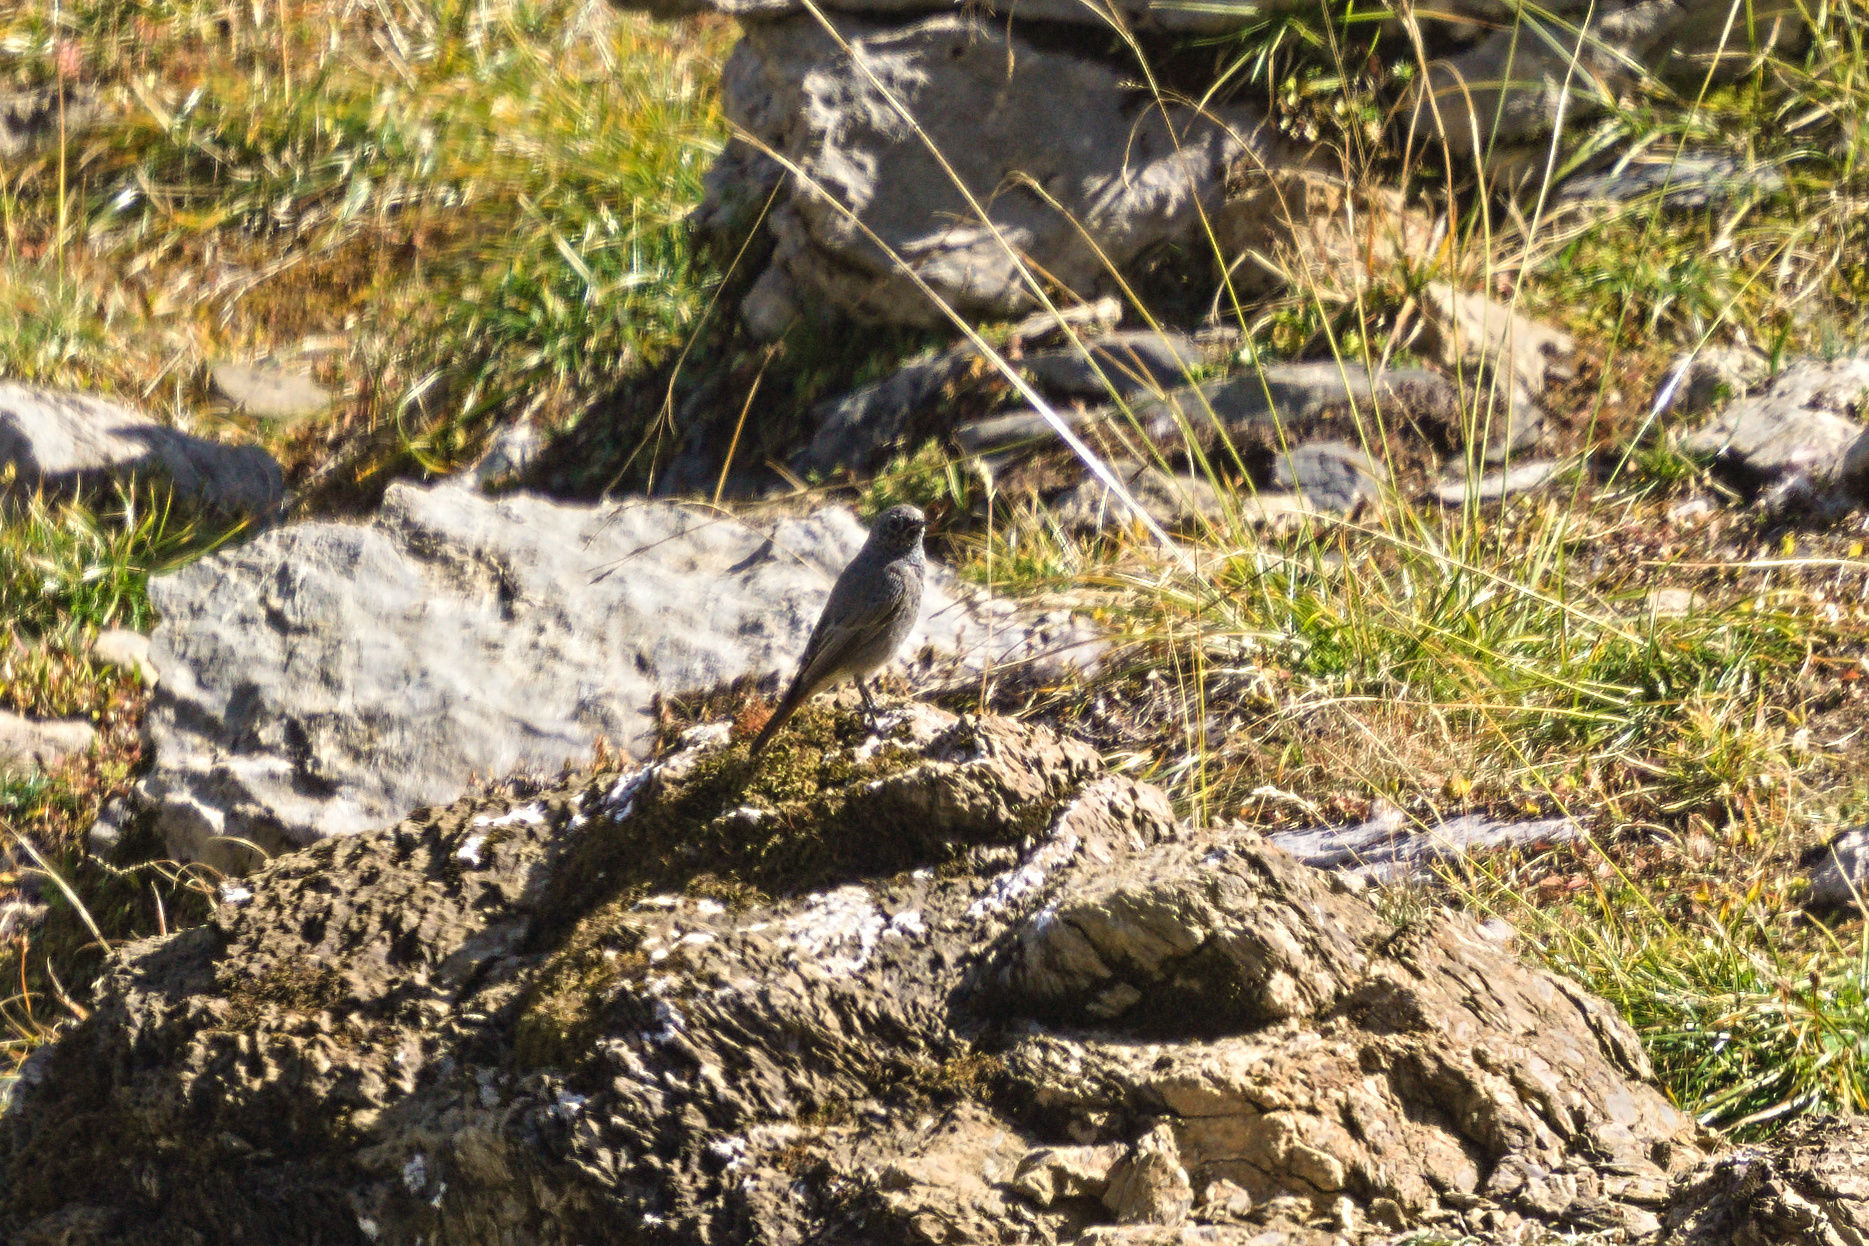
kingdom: Animalia
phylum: Chordata
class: Aves
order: Passeriformes
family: Muscicapidae
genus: Phoenicurus
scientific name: Phoenicurus ochruros
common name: Black redstart
